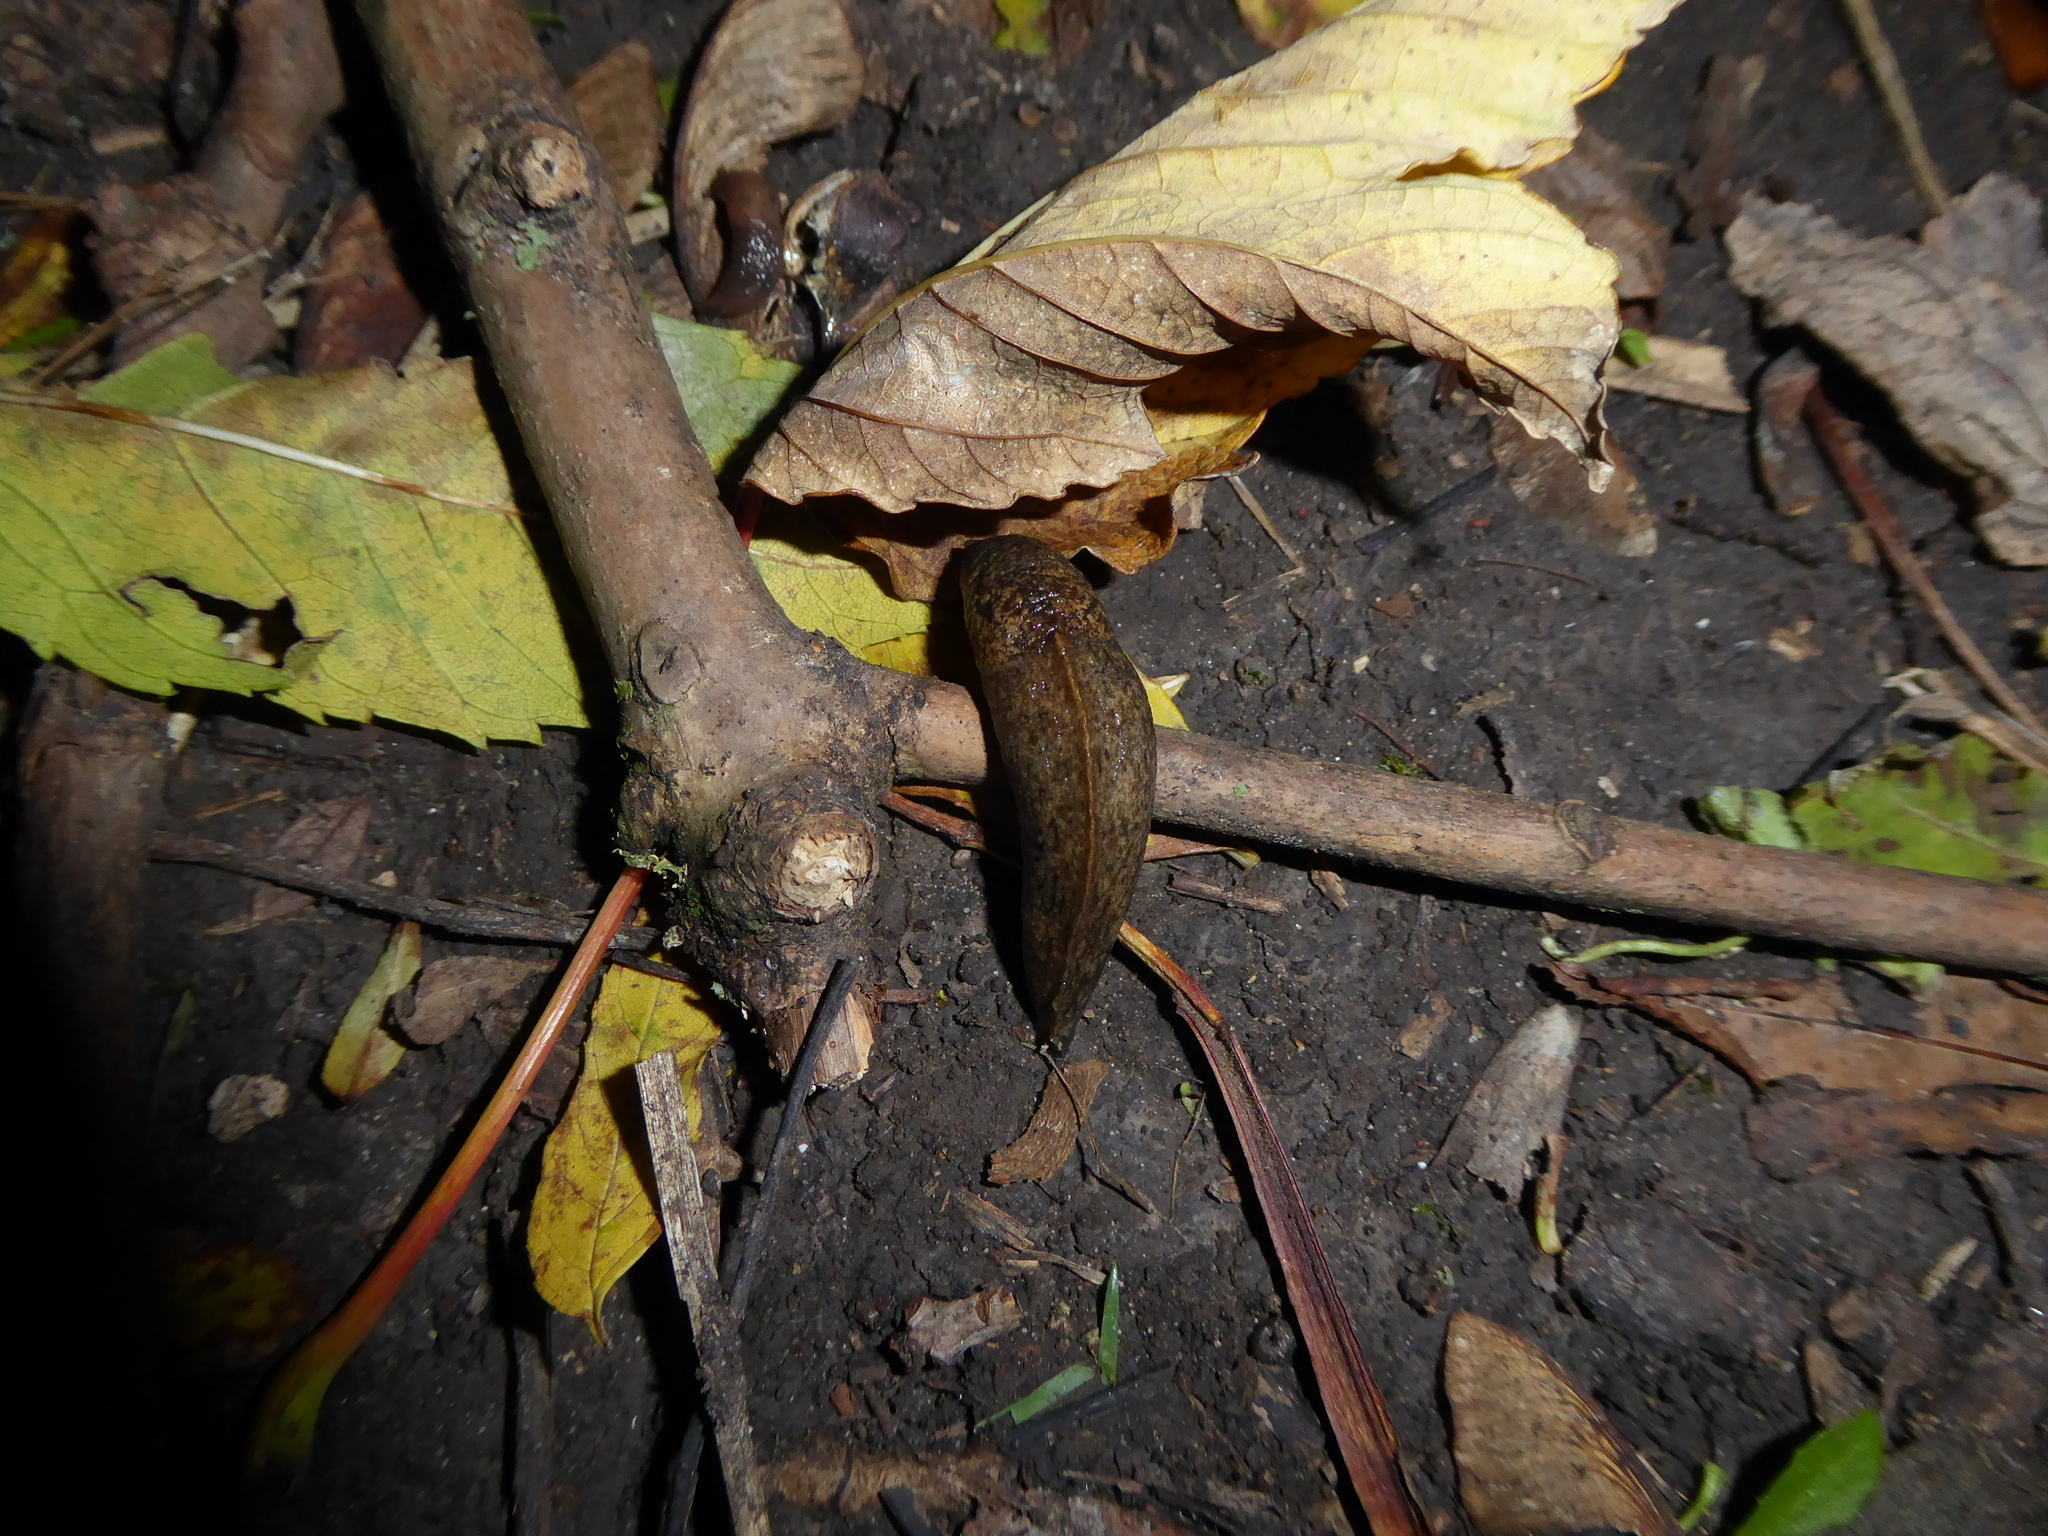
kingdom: Animalia
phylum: Mollusca
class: Gastropoda
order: Stylommatophora
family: Milacidae
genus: Tandonia
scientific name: Tandonia
